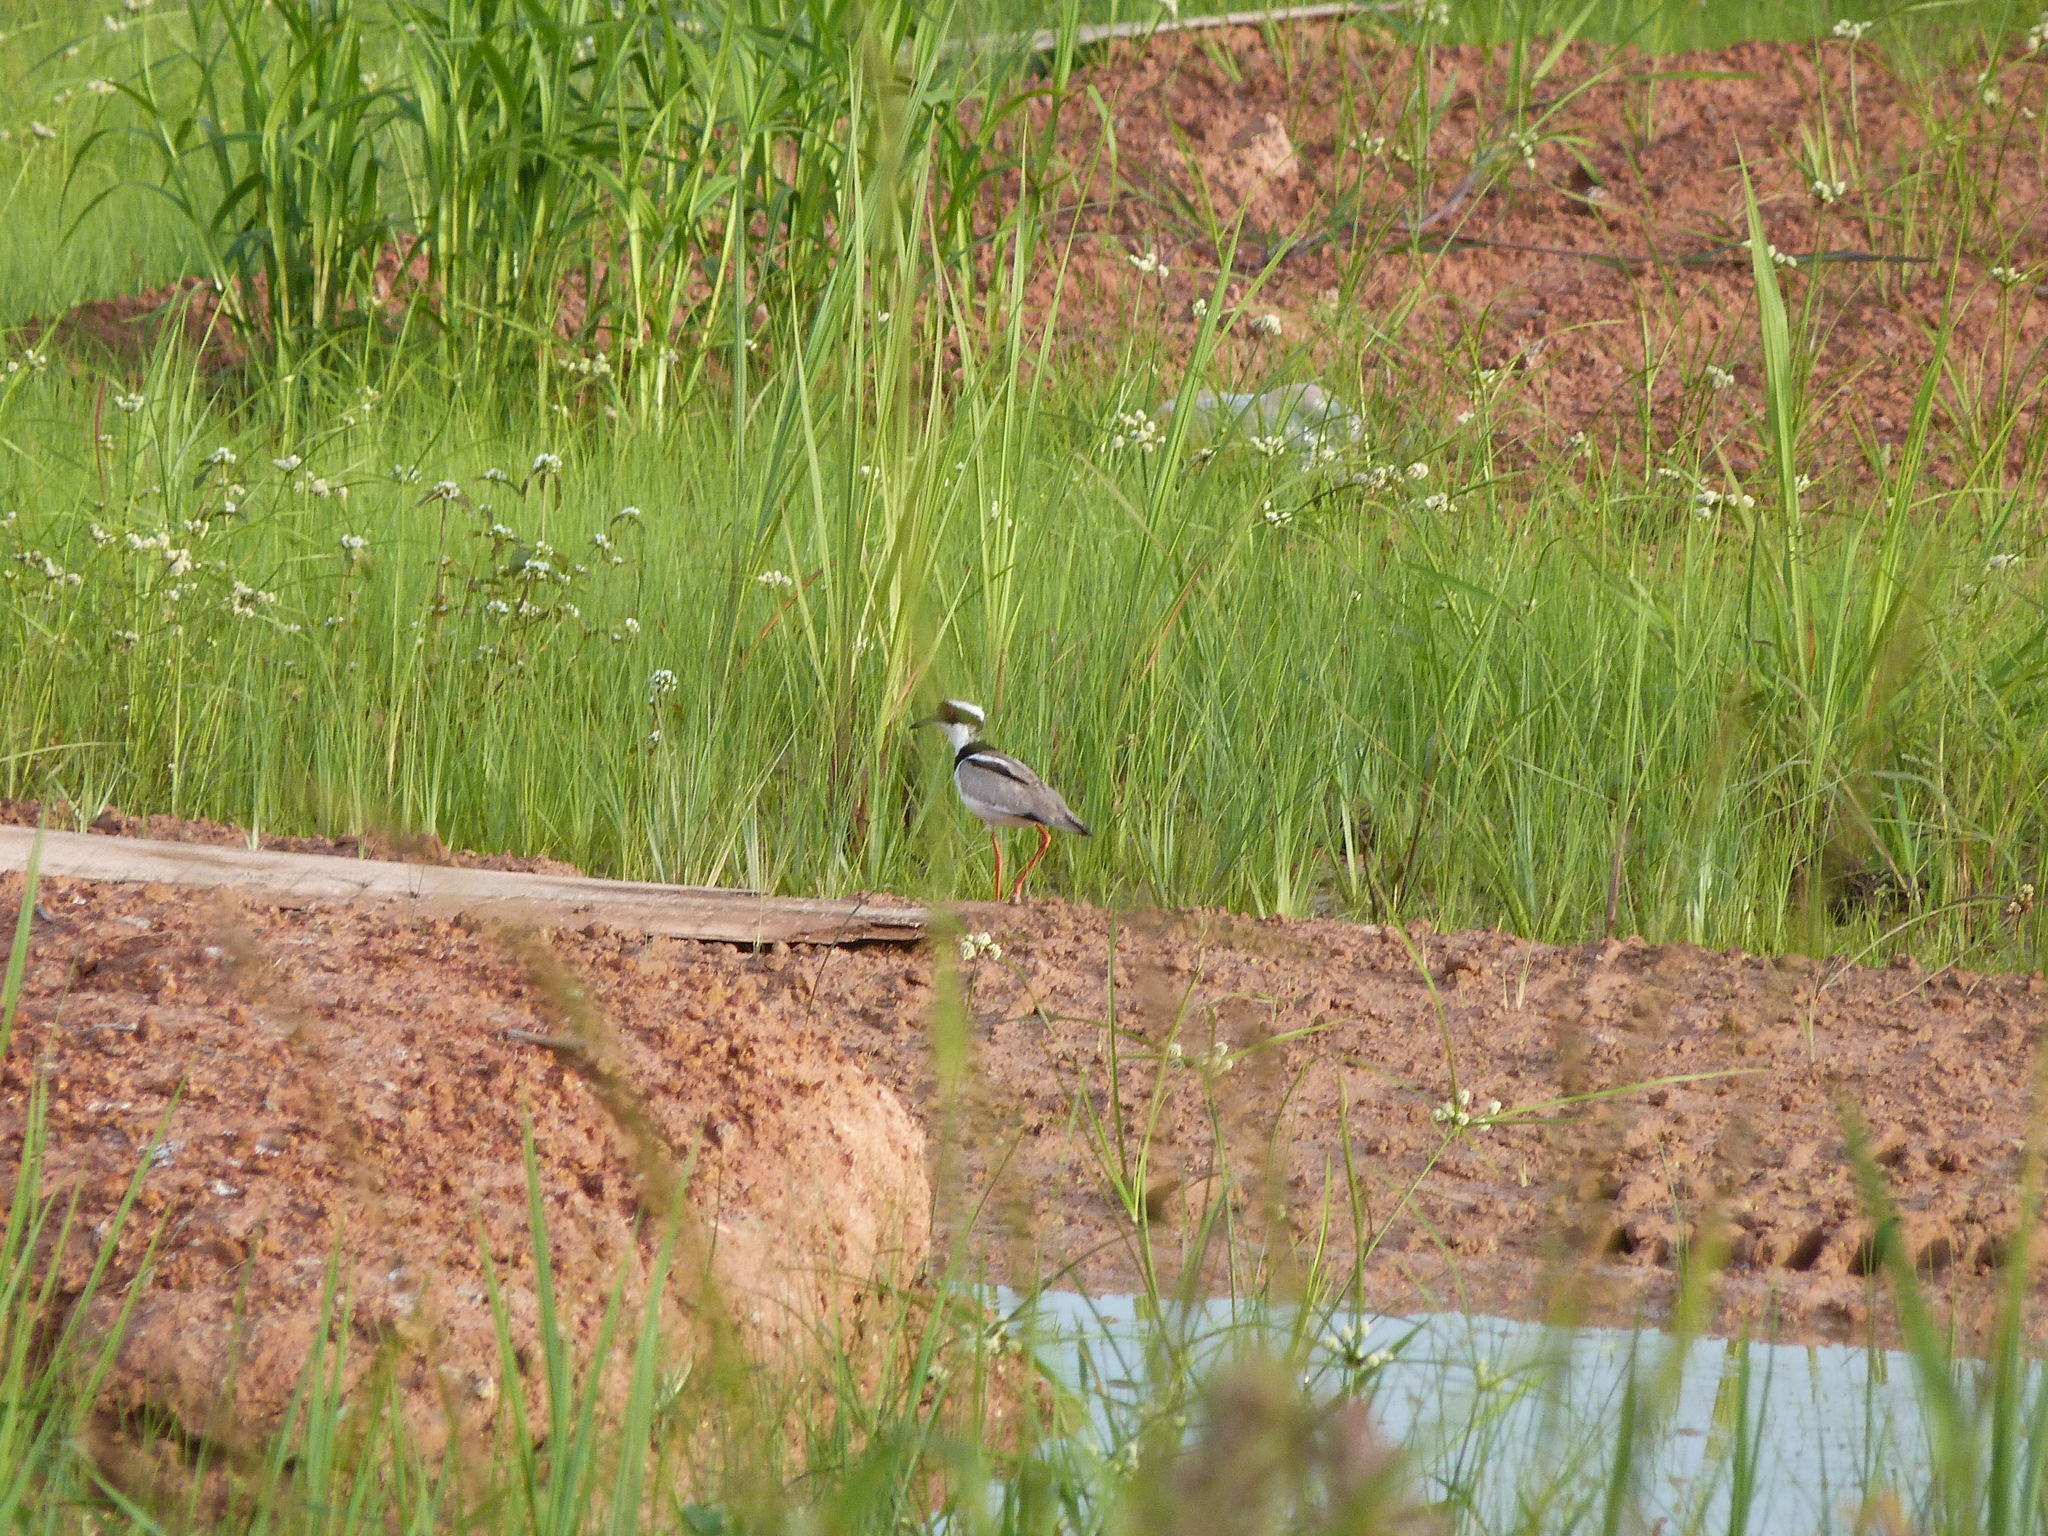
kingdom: Animalia
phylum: Chordata
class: Aves
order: Charadriiformes
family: Charadriidae
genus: Hoploxypterus
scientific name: Hoploxypterus cayanus
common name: Pied plover
